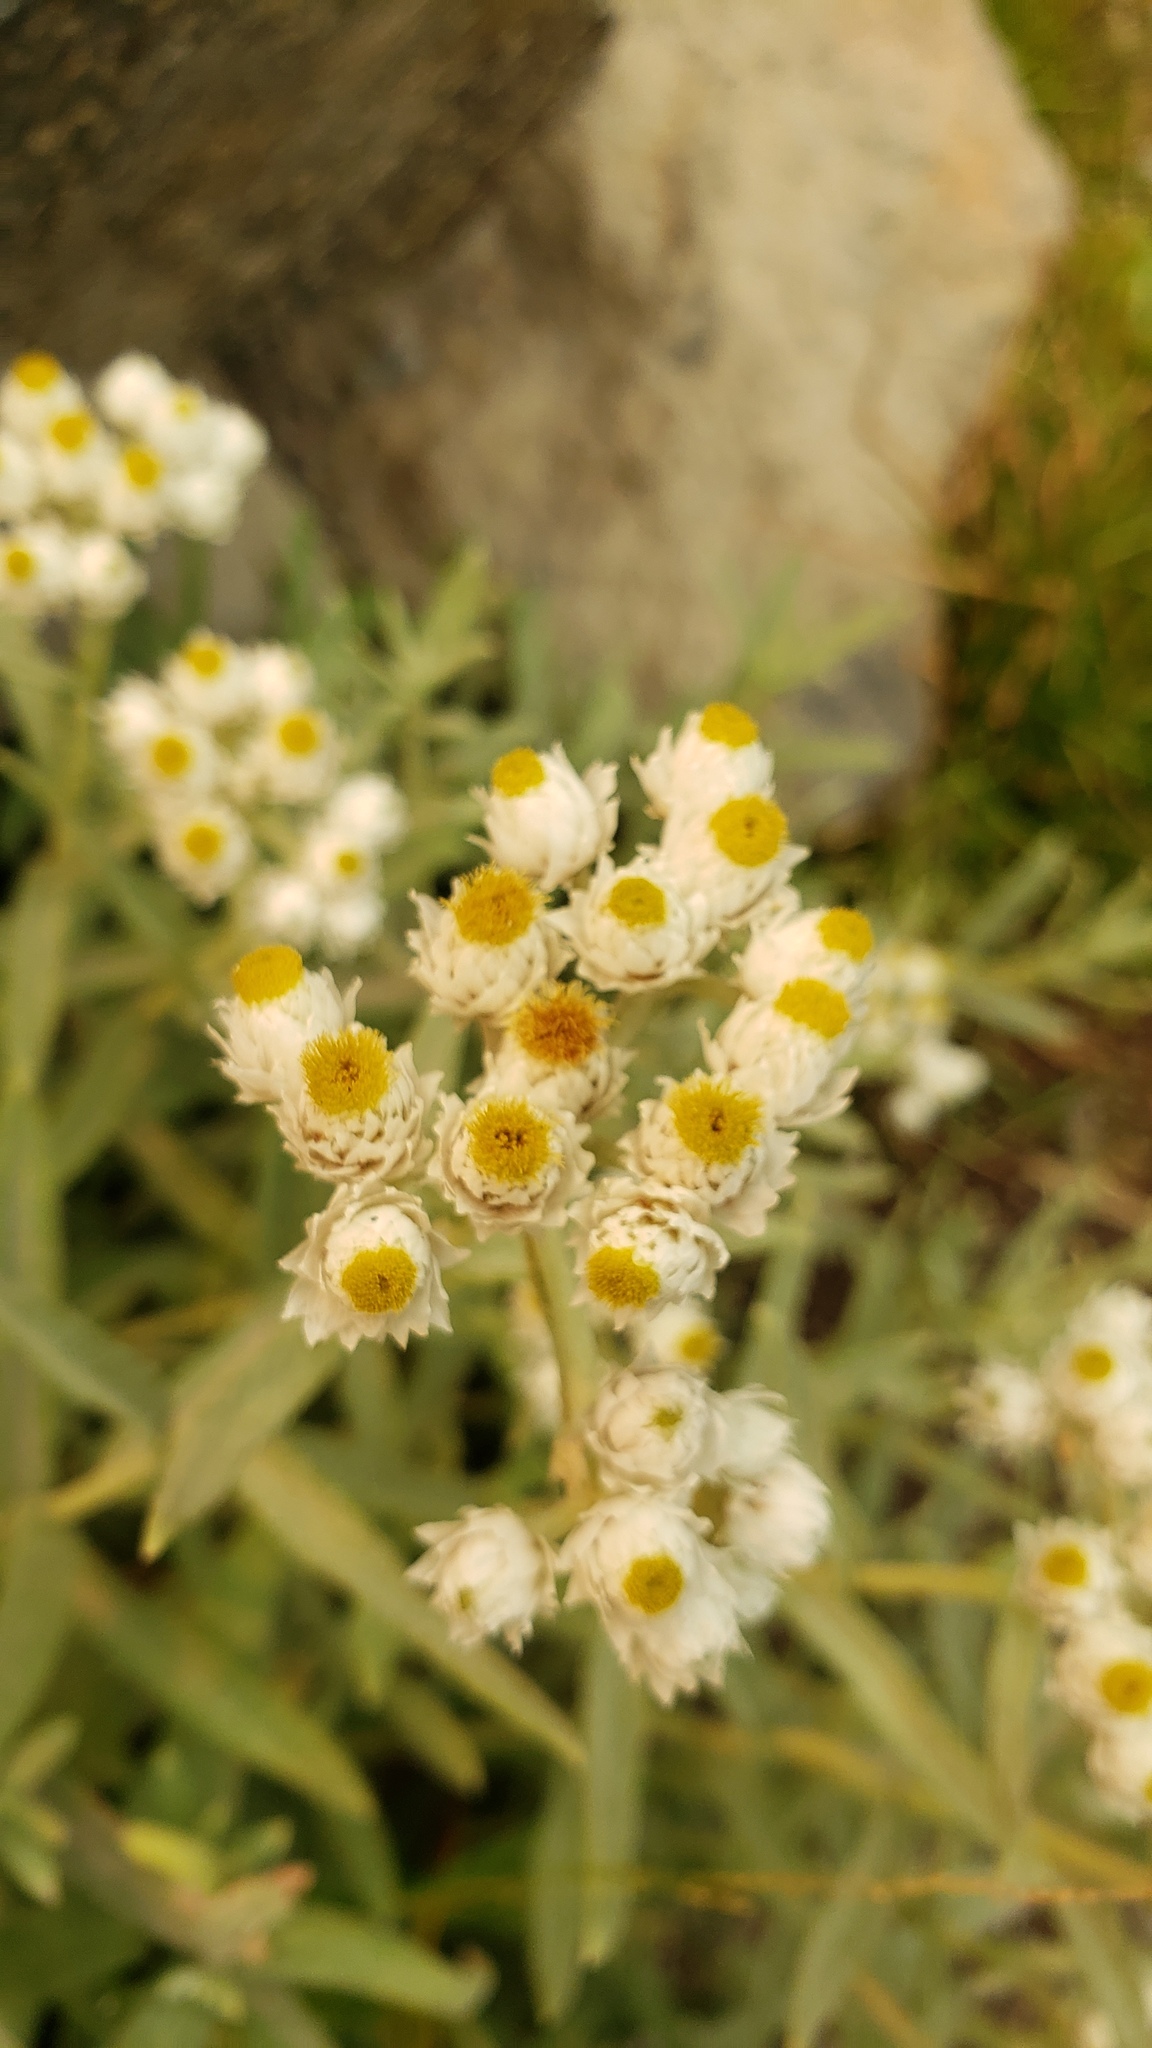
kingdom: Plantae
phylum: Tracheophyta
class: Magnoliopsida
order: Asterales
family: Asteraceae
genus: Anaphalis
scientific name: Anaphalis margaritacea
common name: Pearly everlasting
